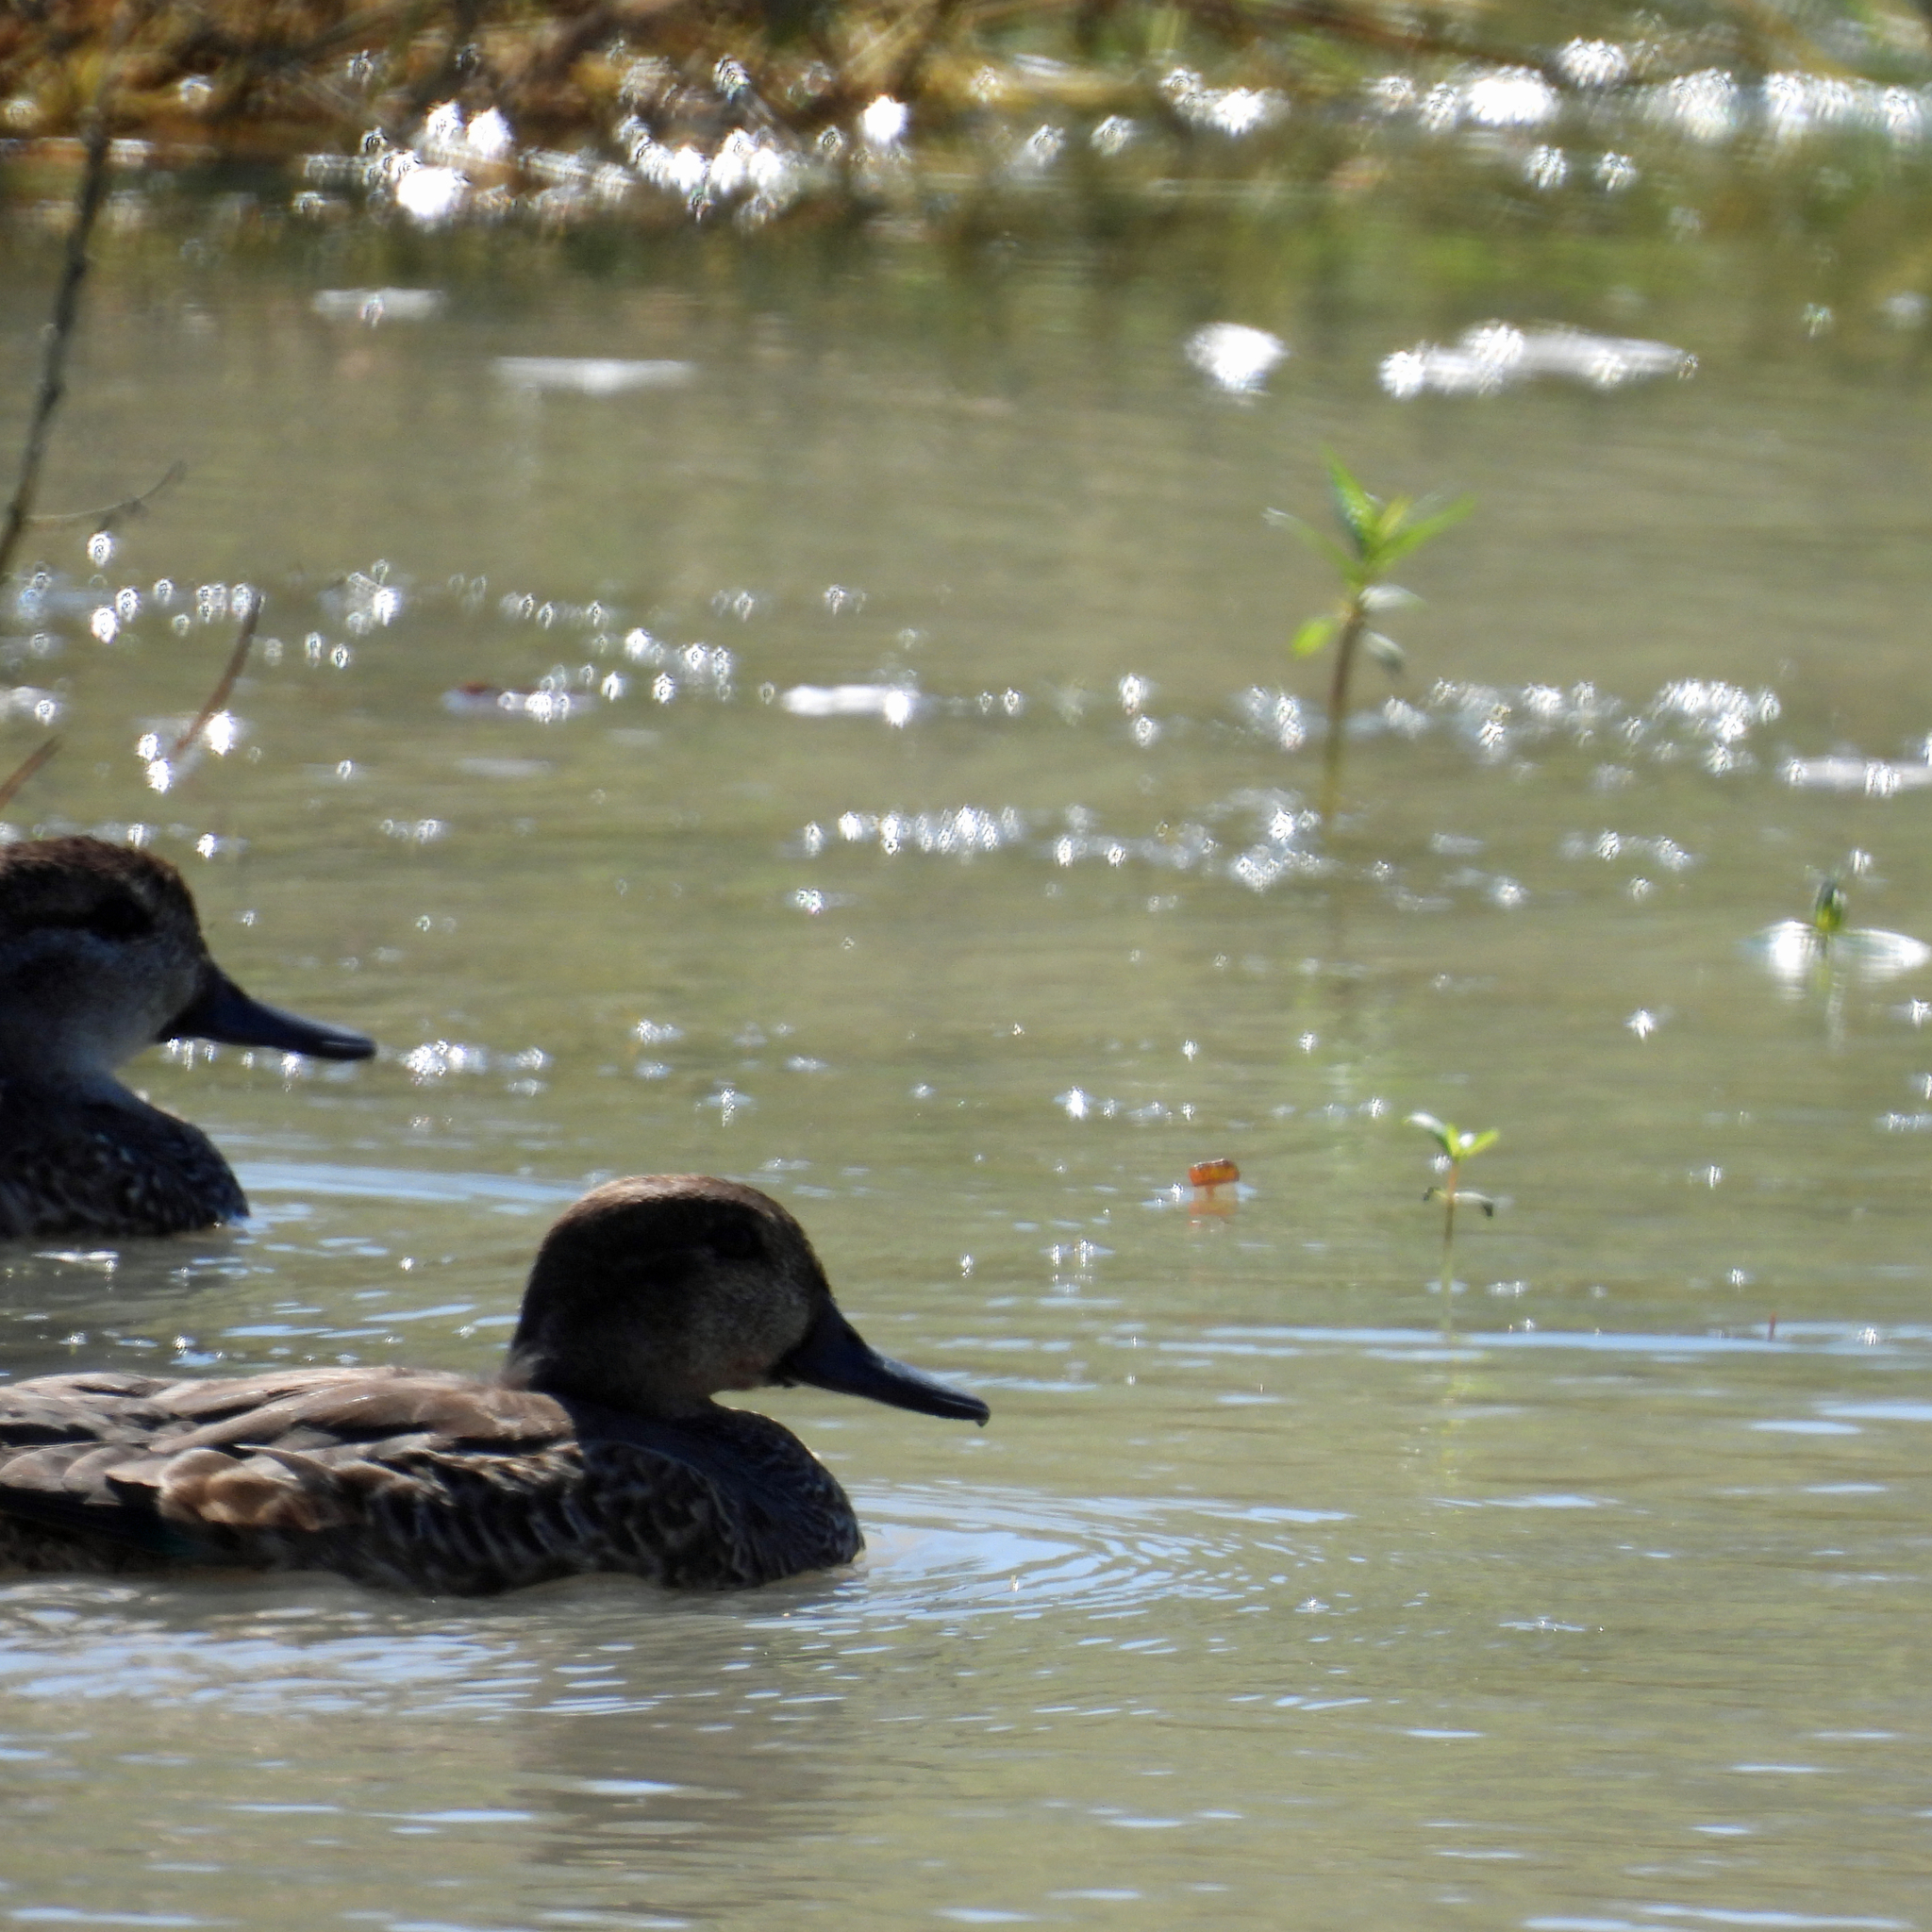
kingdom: Animalia
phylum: Chordata
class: Aves
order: Anseriformes
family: Anatidae
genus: Anas
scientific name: Anas carolinensis
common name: Green-winged teal
